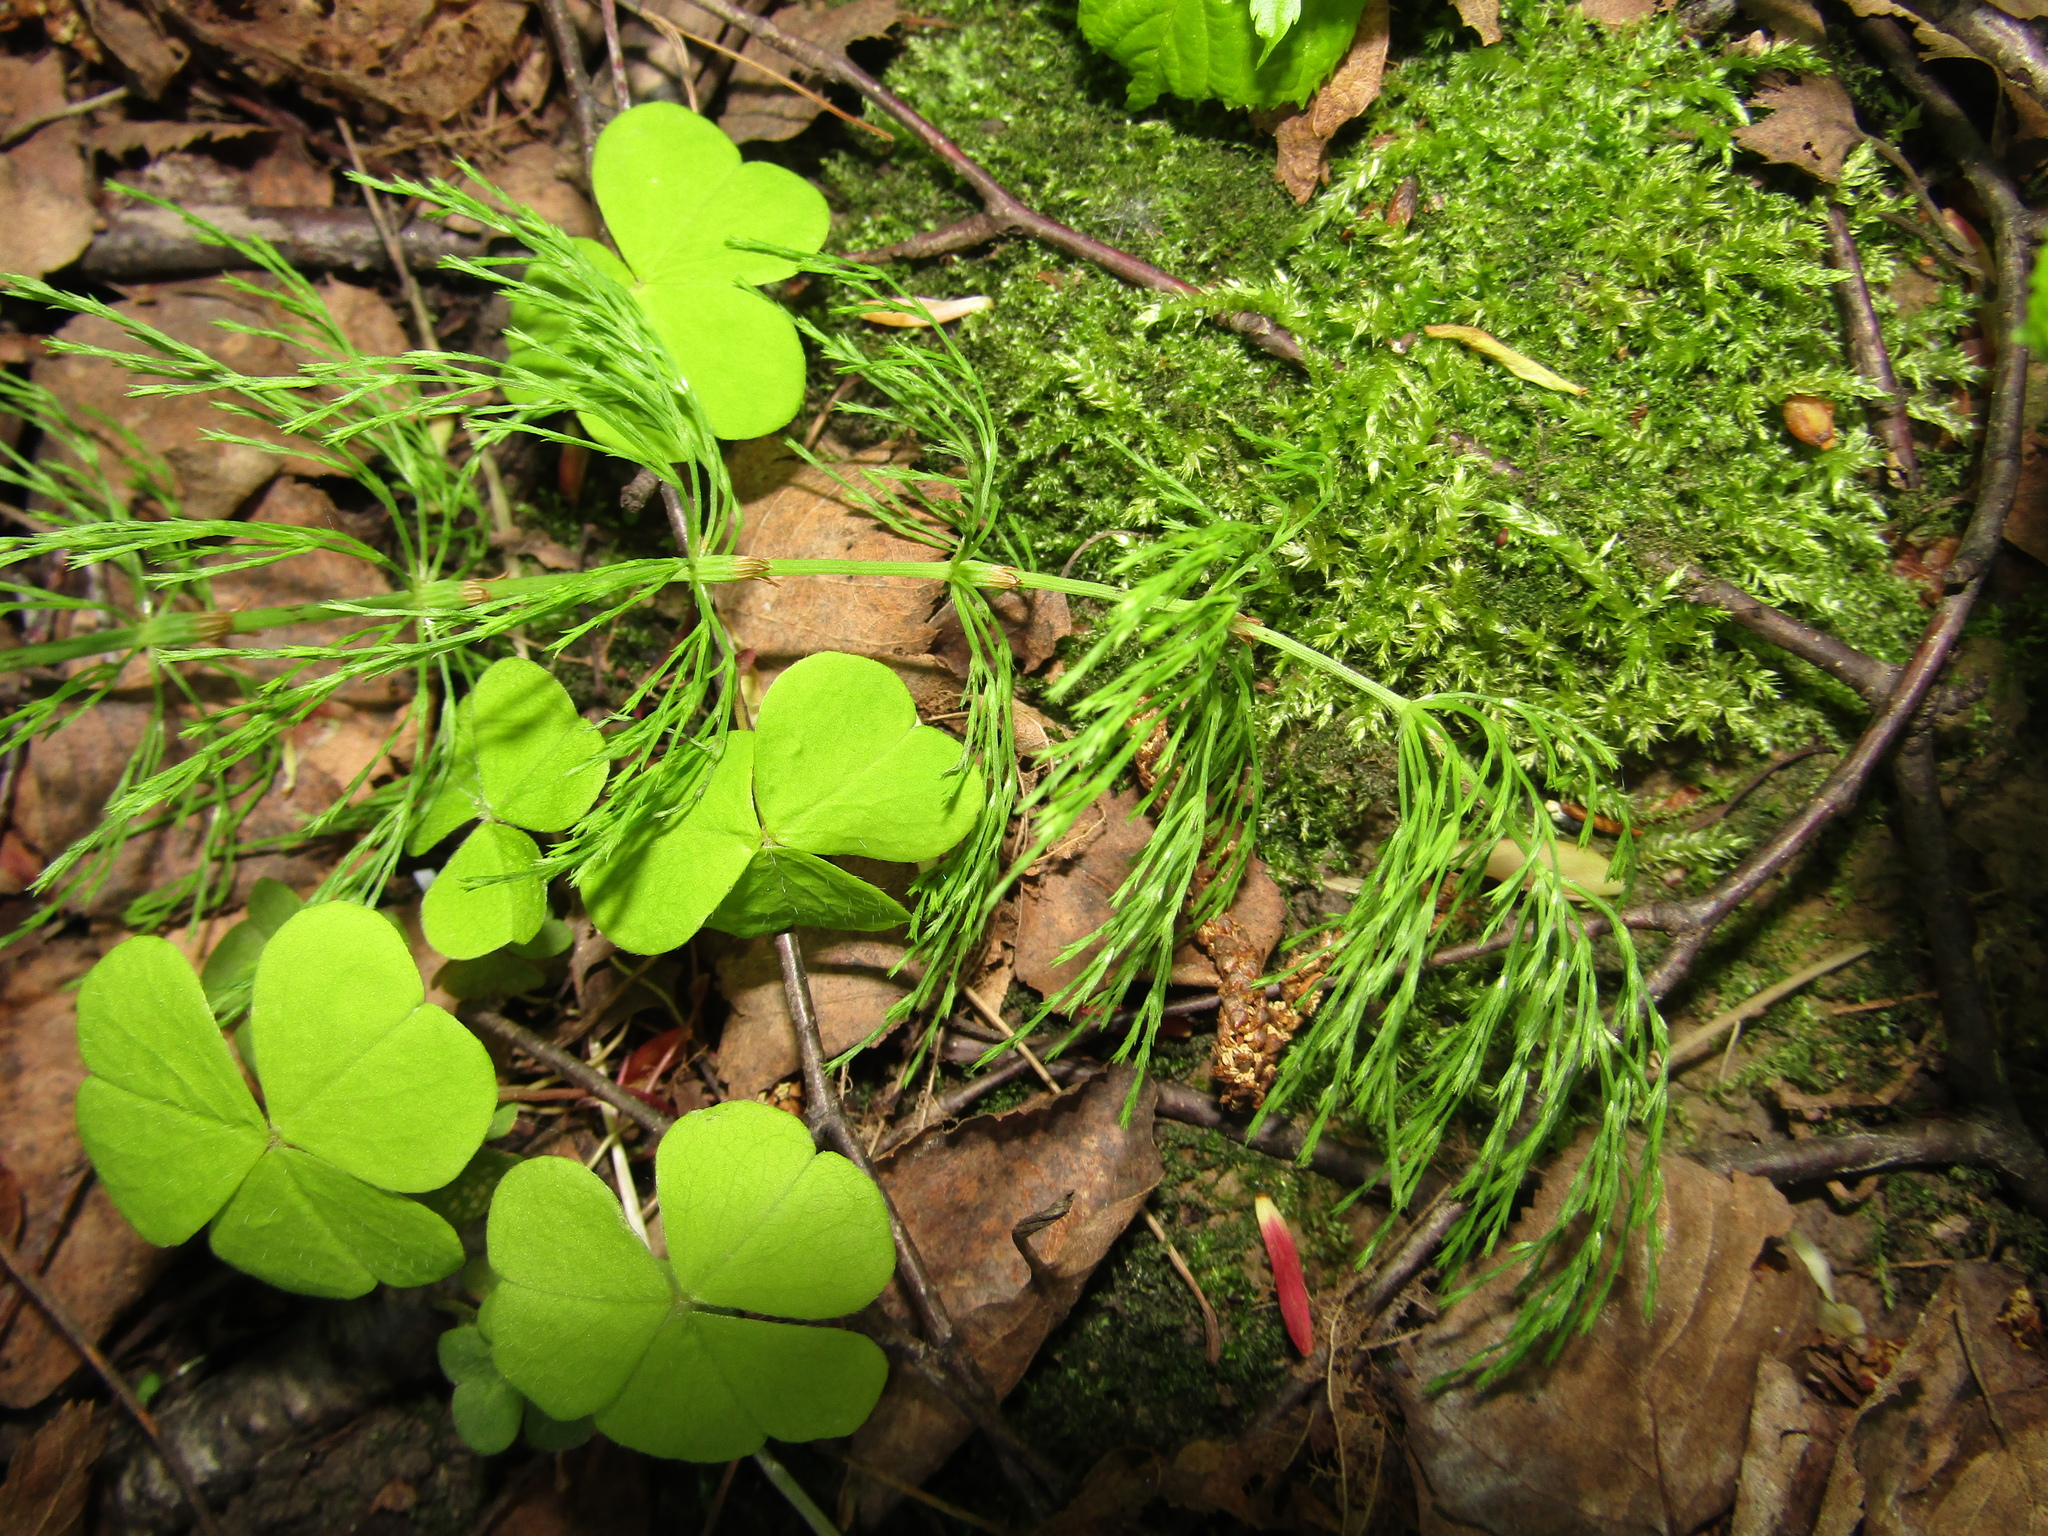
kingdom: Plantae
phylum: Tracheophyta
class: Polypodiopsida
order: Equisetales
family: Equisetaceae
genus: Equisetum
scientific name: Equisetum sylvaticum
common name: Wood horsetail
